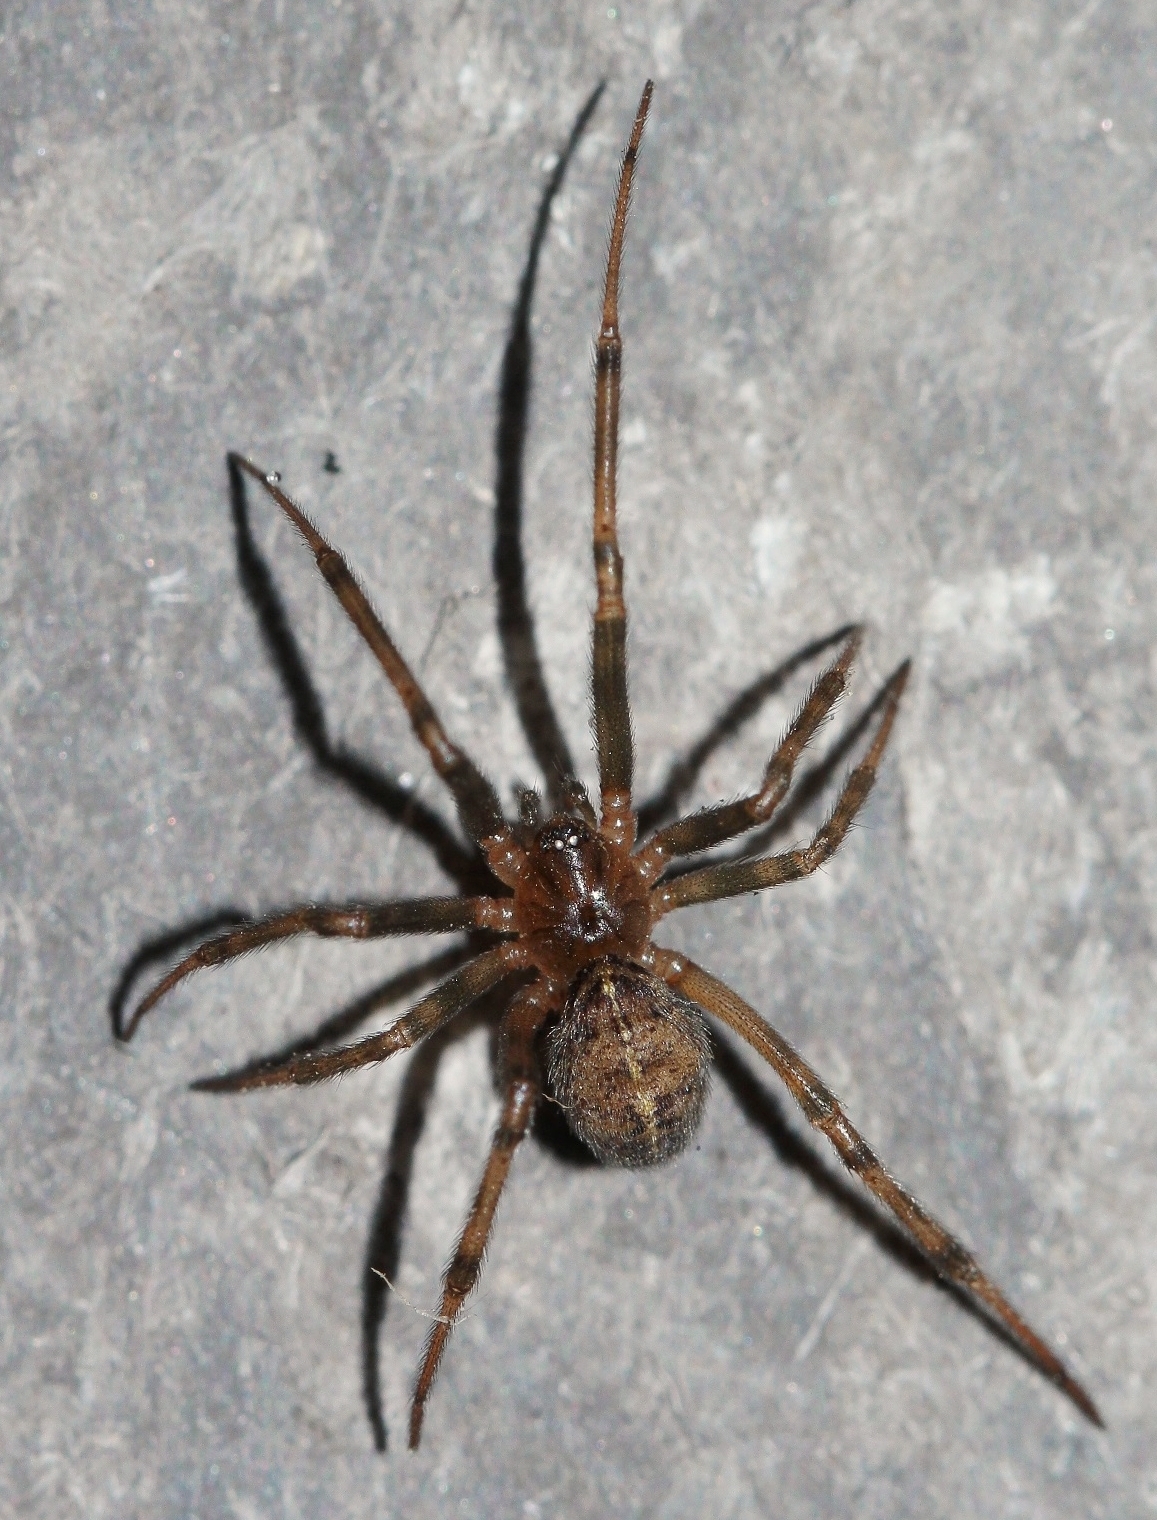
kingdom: Animalia
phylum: Arthropoda
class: Arachnida
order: Araneae
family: Theridiidae
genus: Steatoda
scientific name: Steatoda castanea
